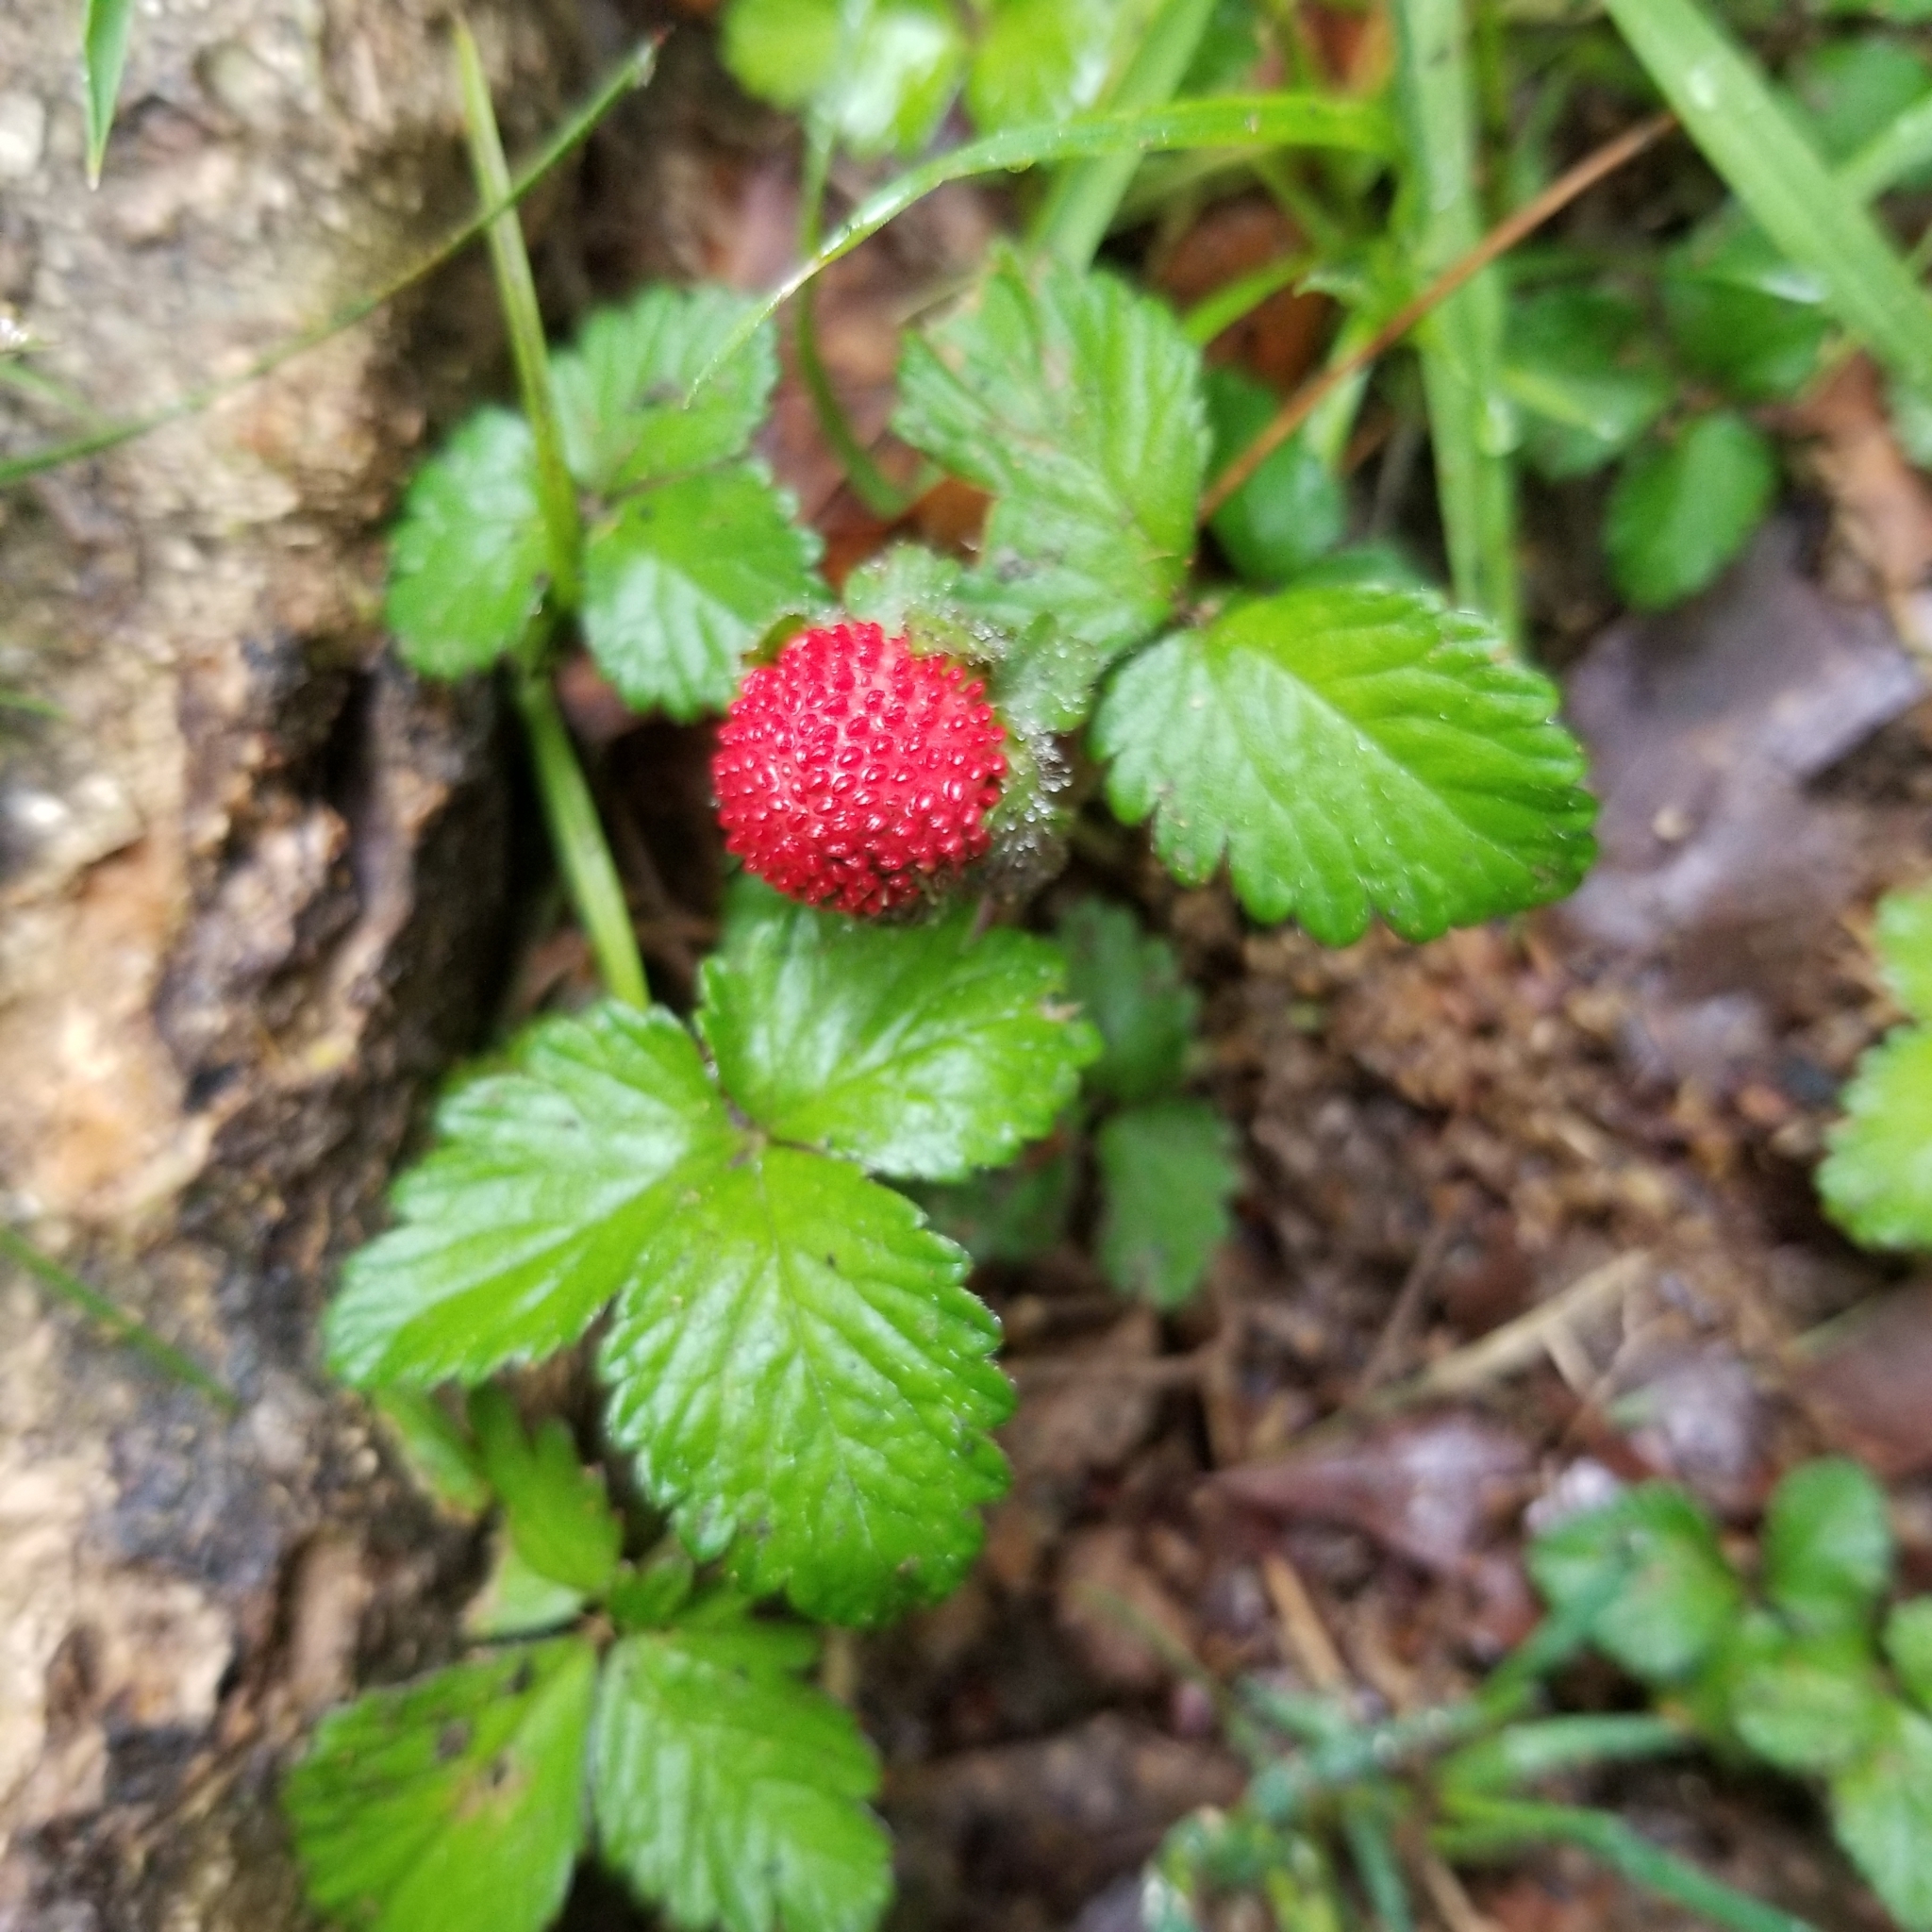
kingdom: Plantae
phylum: Tracheophyta
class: Magnoliopsida
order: Rosales
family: Rosaceae
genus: Potentilla
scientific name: Potentilla indica
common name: Yellow-flowered strawberry
